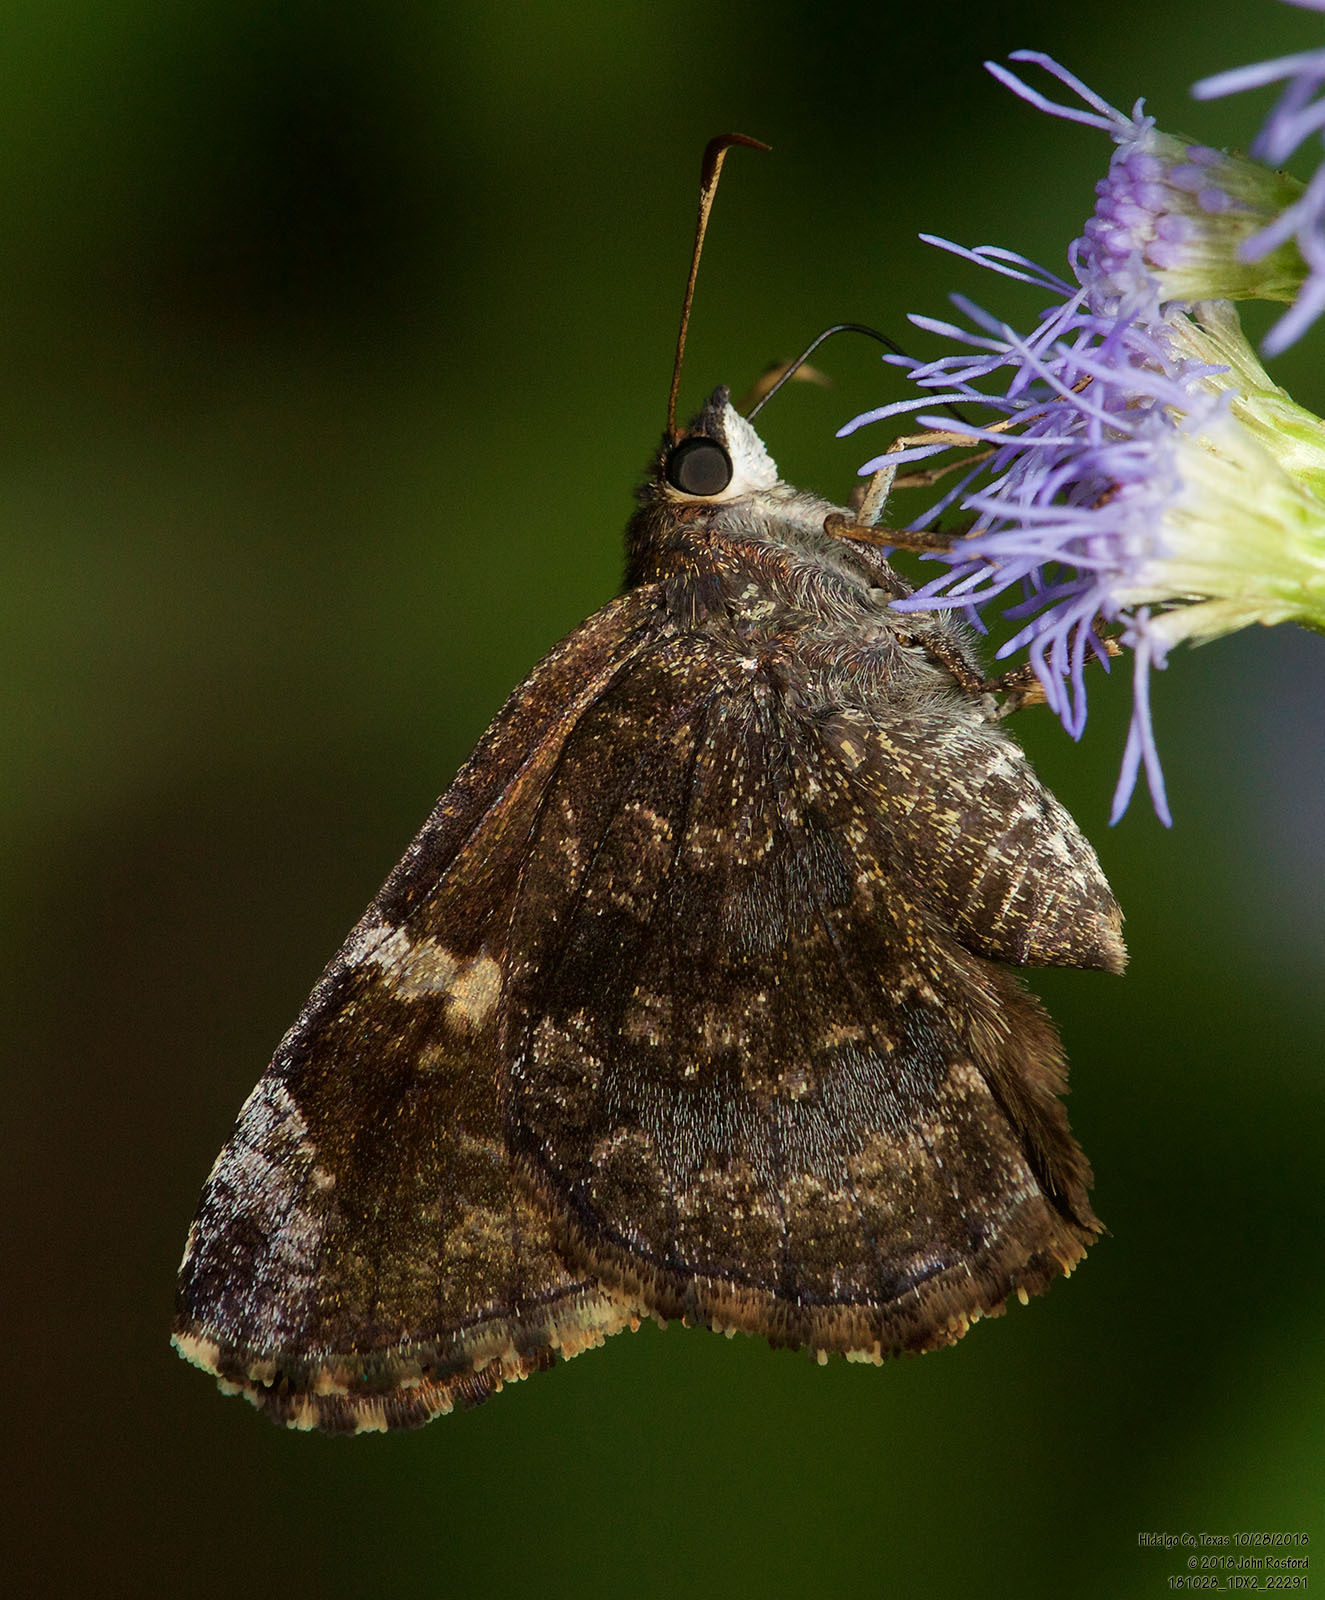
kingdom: Animalia
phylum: Arthropoda
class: Insecta
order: Lepidoptera
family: Hesperiidae
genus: Caicella
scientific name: Caicella calchas
